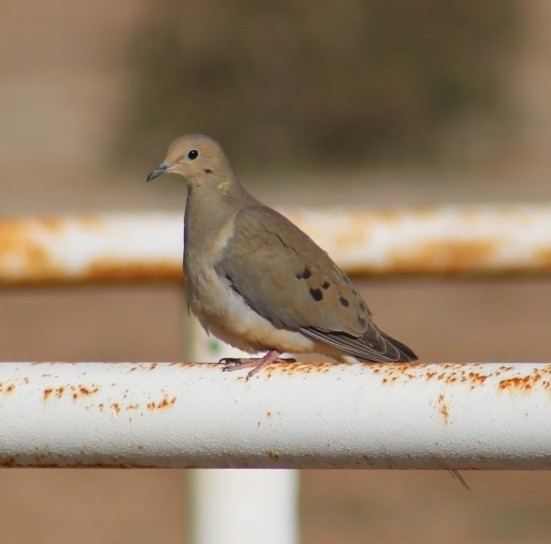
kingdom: Animalia
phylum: Chordata
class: Aves
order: Columbiformes
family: Columbidae
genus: Zenaida
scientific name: Zenaida macroura
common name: Mourning dove
